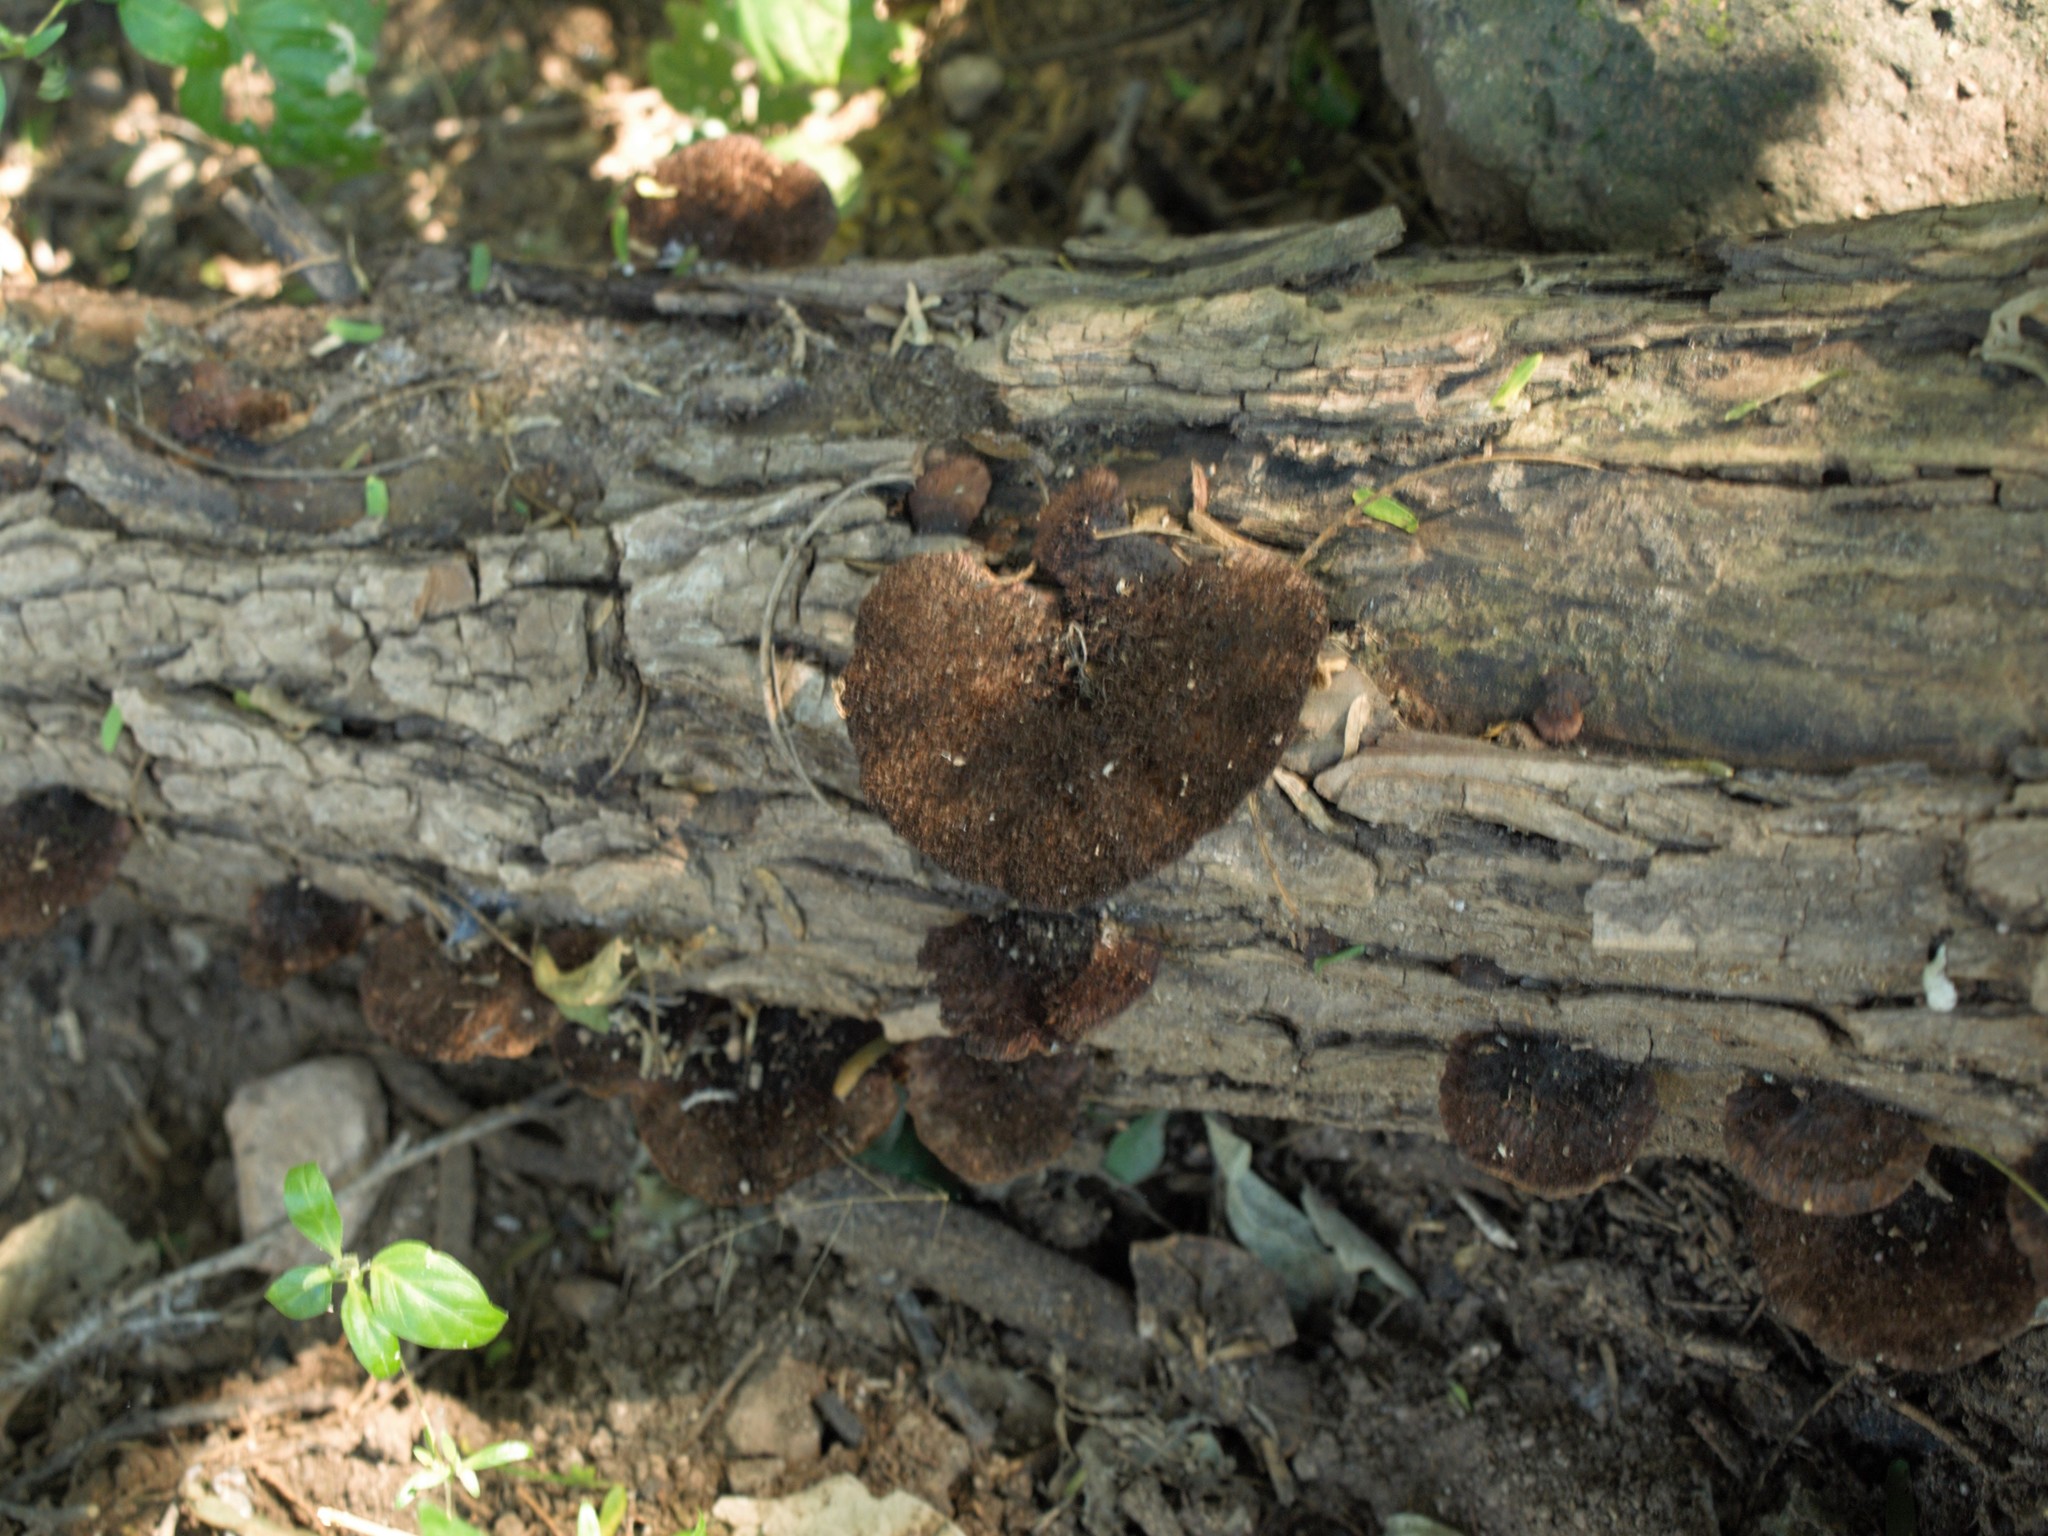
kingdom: Fungi
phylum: Basidiomycota
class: Agaricomycetes
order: Polyporales
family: Cerrenaceae
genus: Cerrena
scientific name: Cerrena hydnoides
